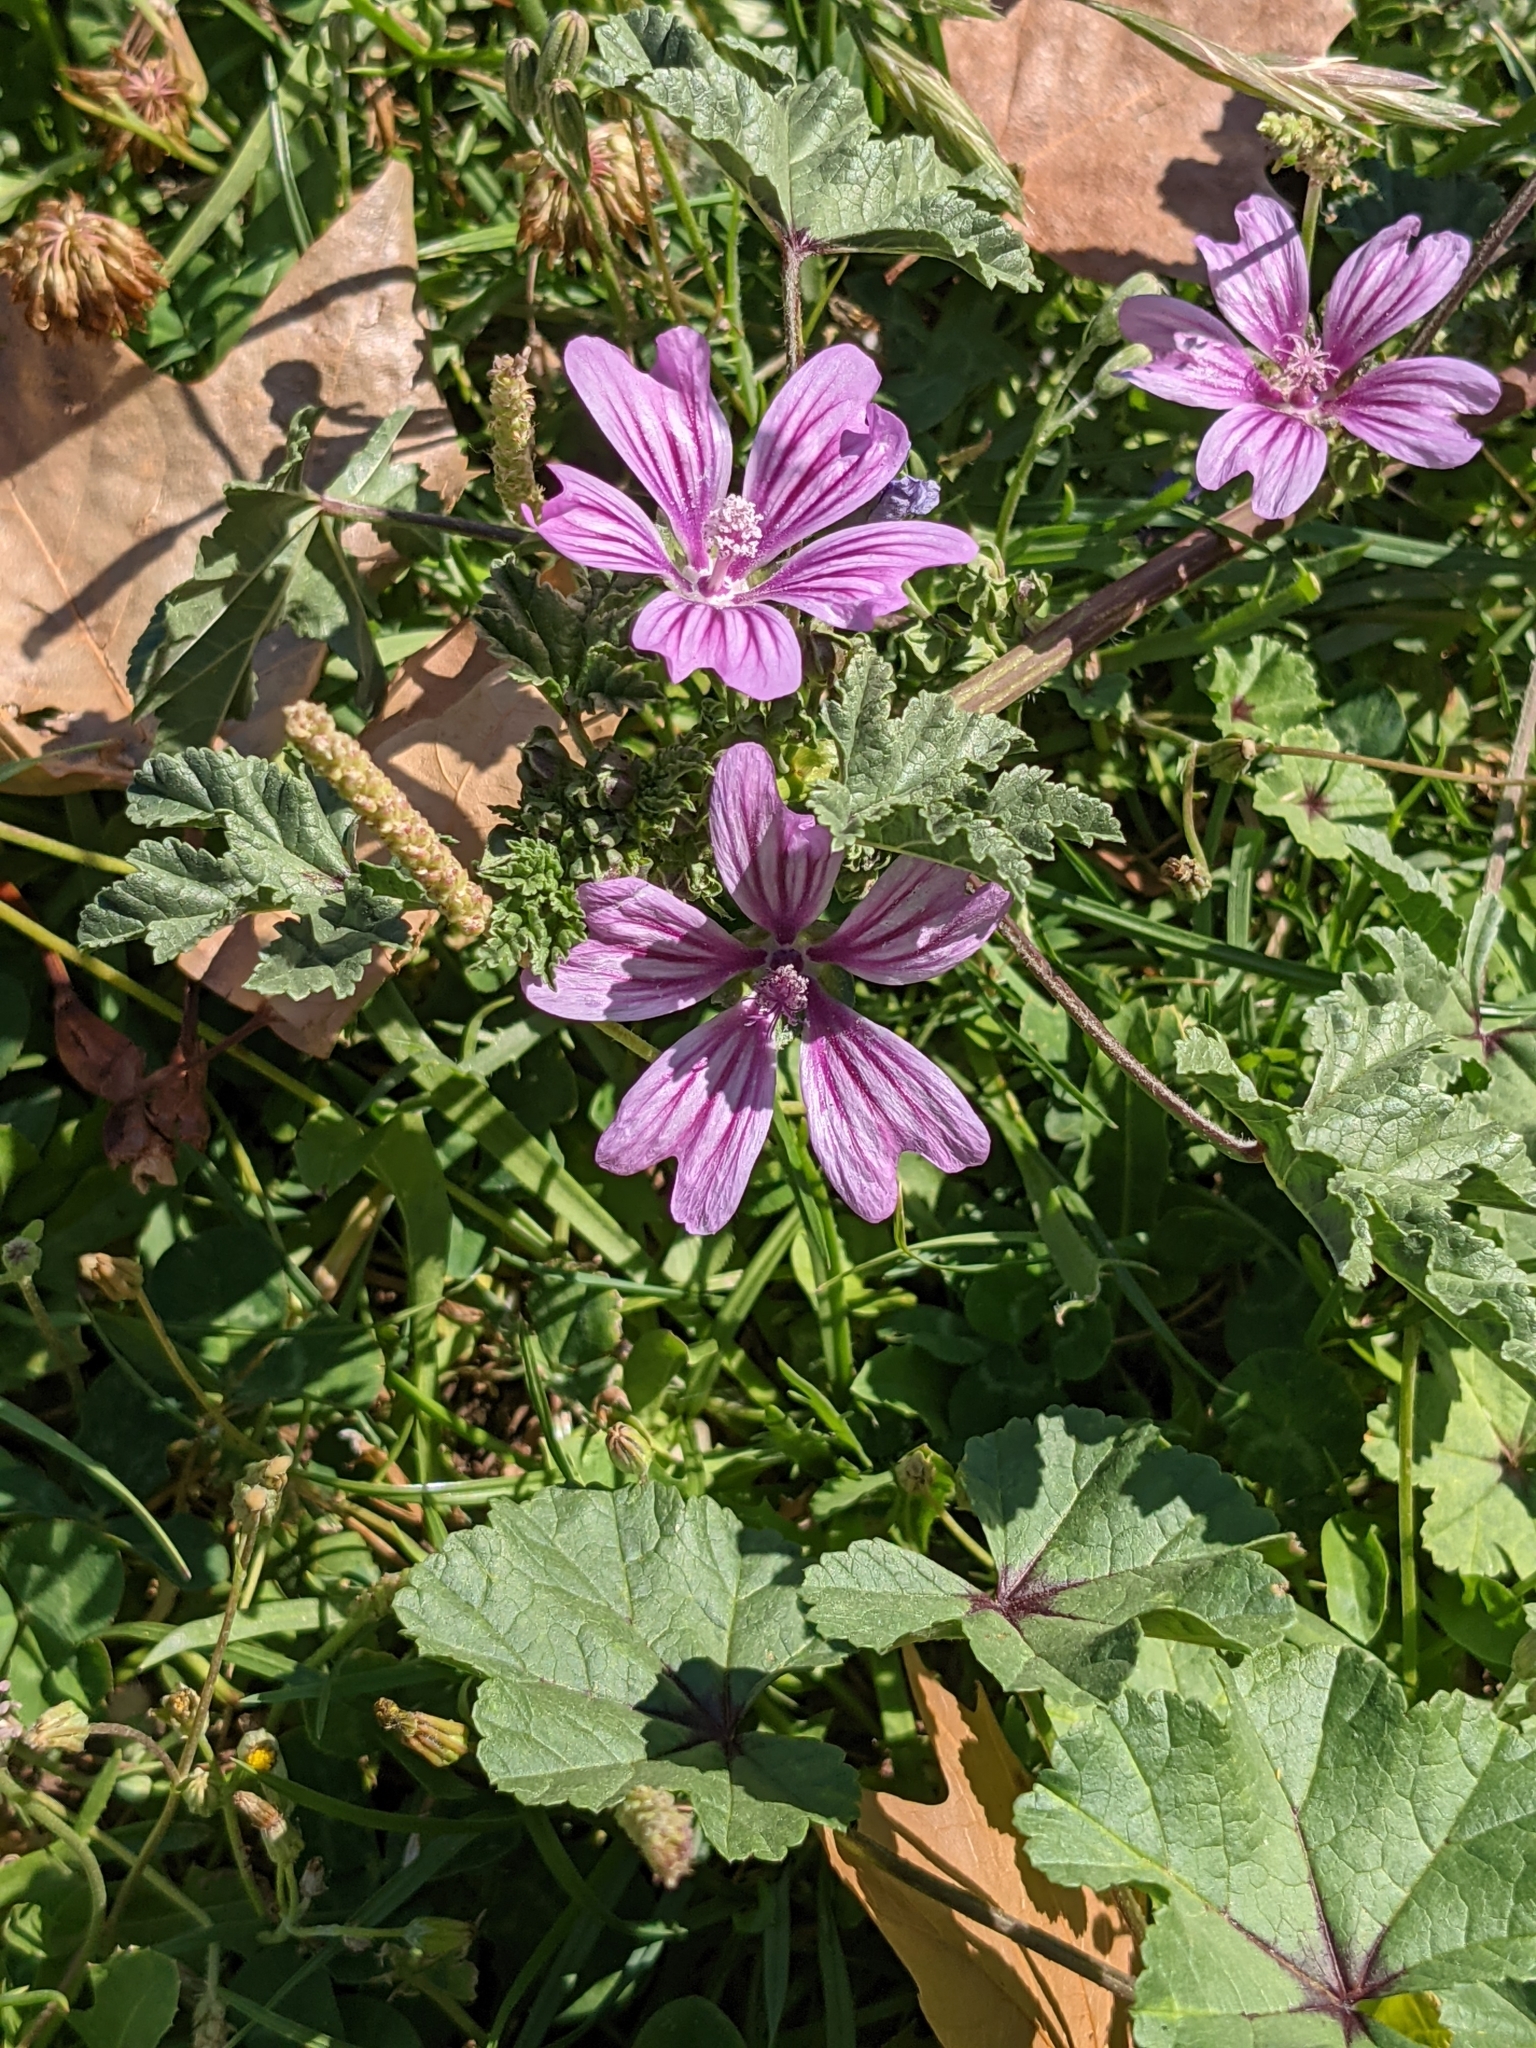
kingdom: Plantae
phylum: Tracheophyta
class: Magnoliopsida
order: Malvales
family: Malvaceae
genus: Malva
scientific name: Malva sylvestris
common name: Common mallow
